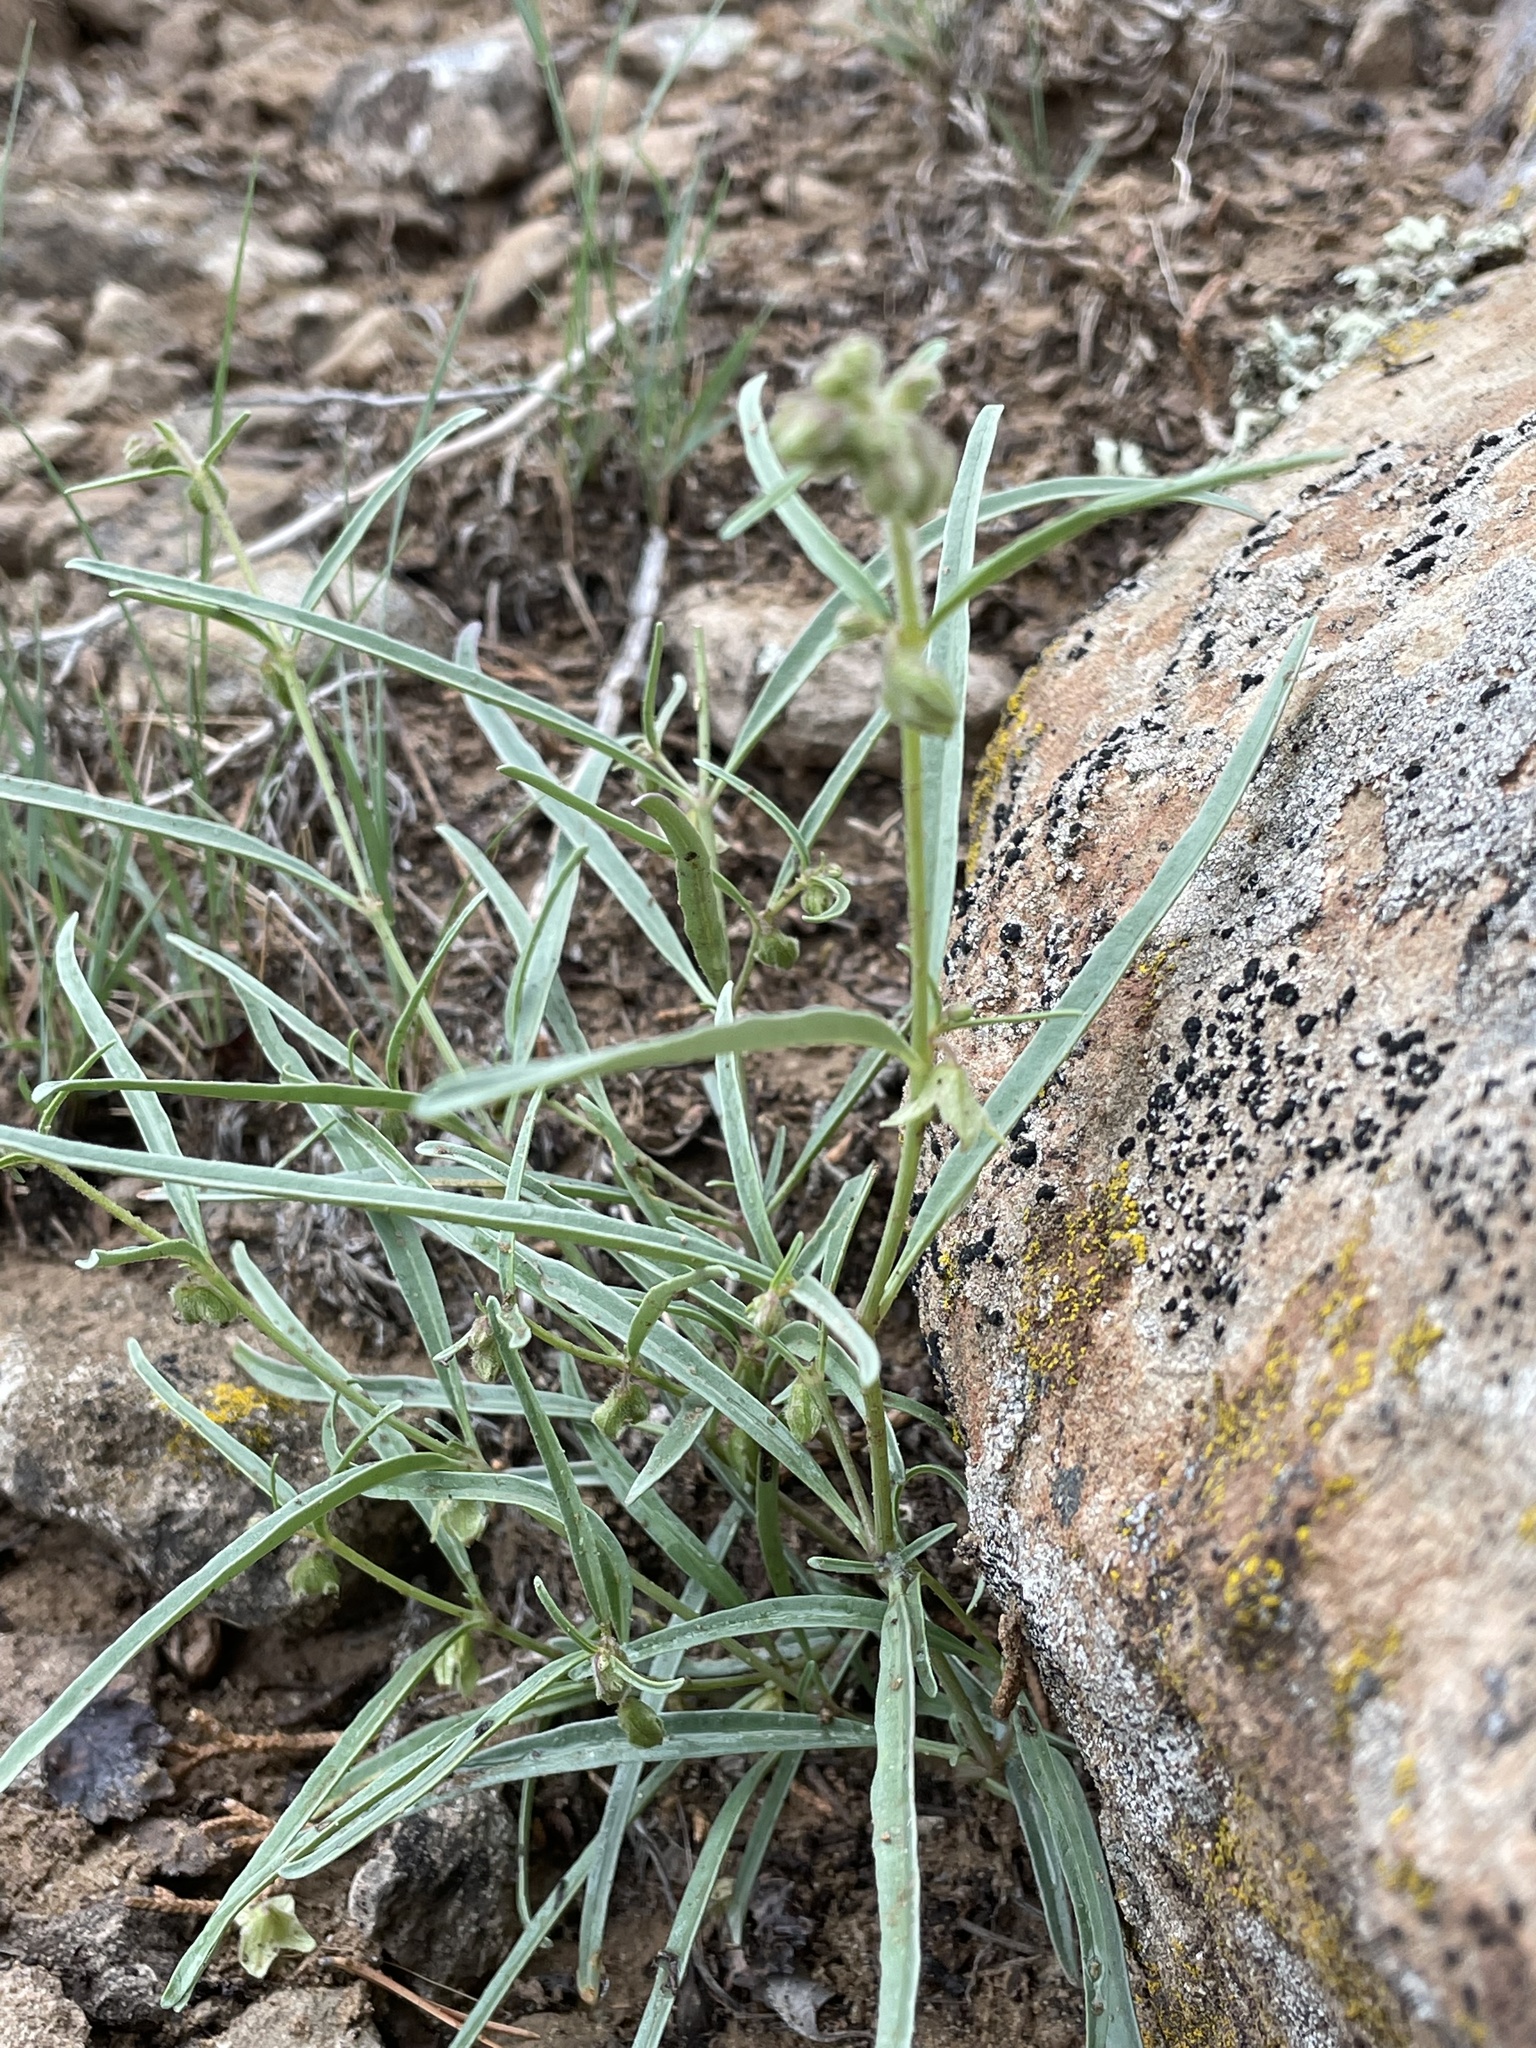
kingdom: Plantae
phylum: Tracheophyta
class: Magnoliopsida
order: Caryophyllales
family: Nyctaginaceae
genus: Mirabilis
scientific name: Mirabilis linearis
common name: Linear-leaved four-o'clock
